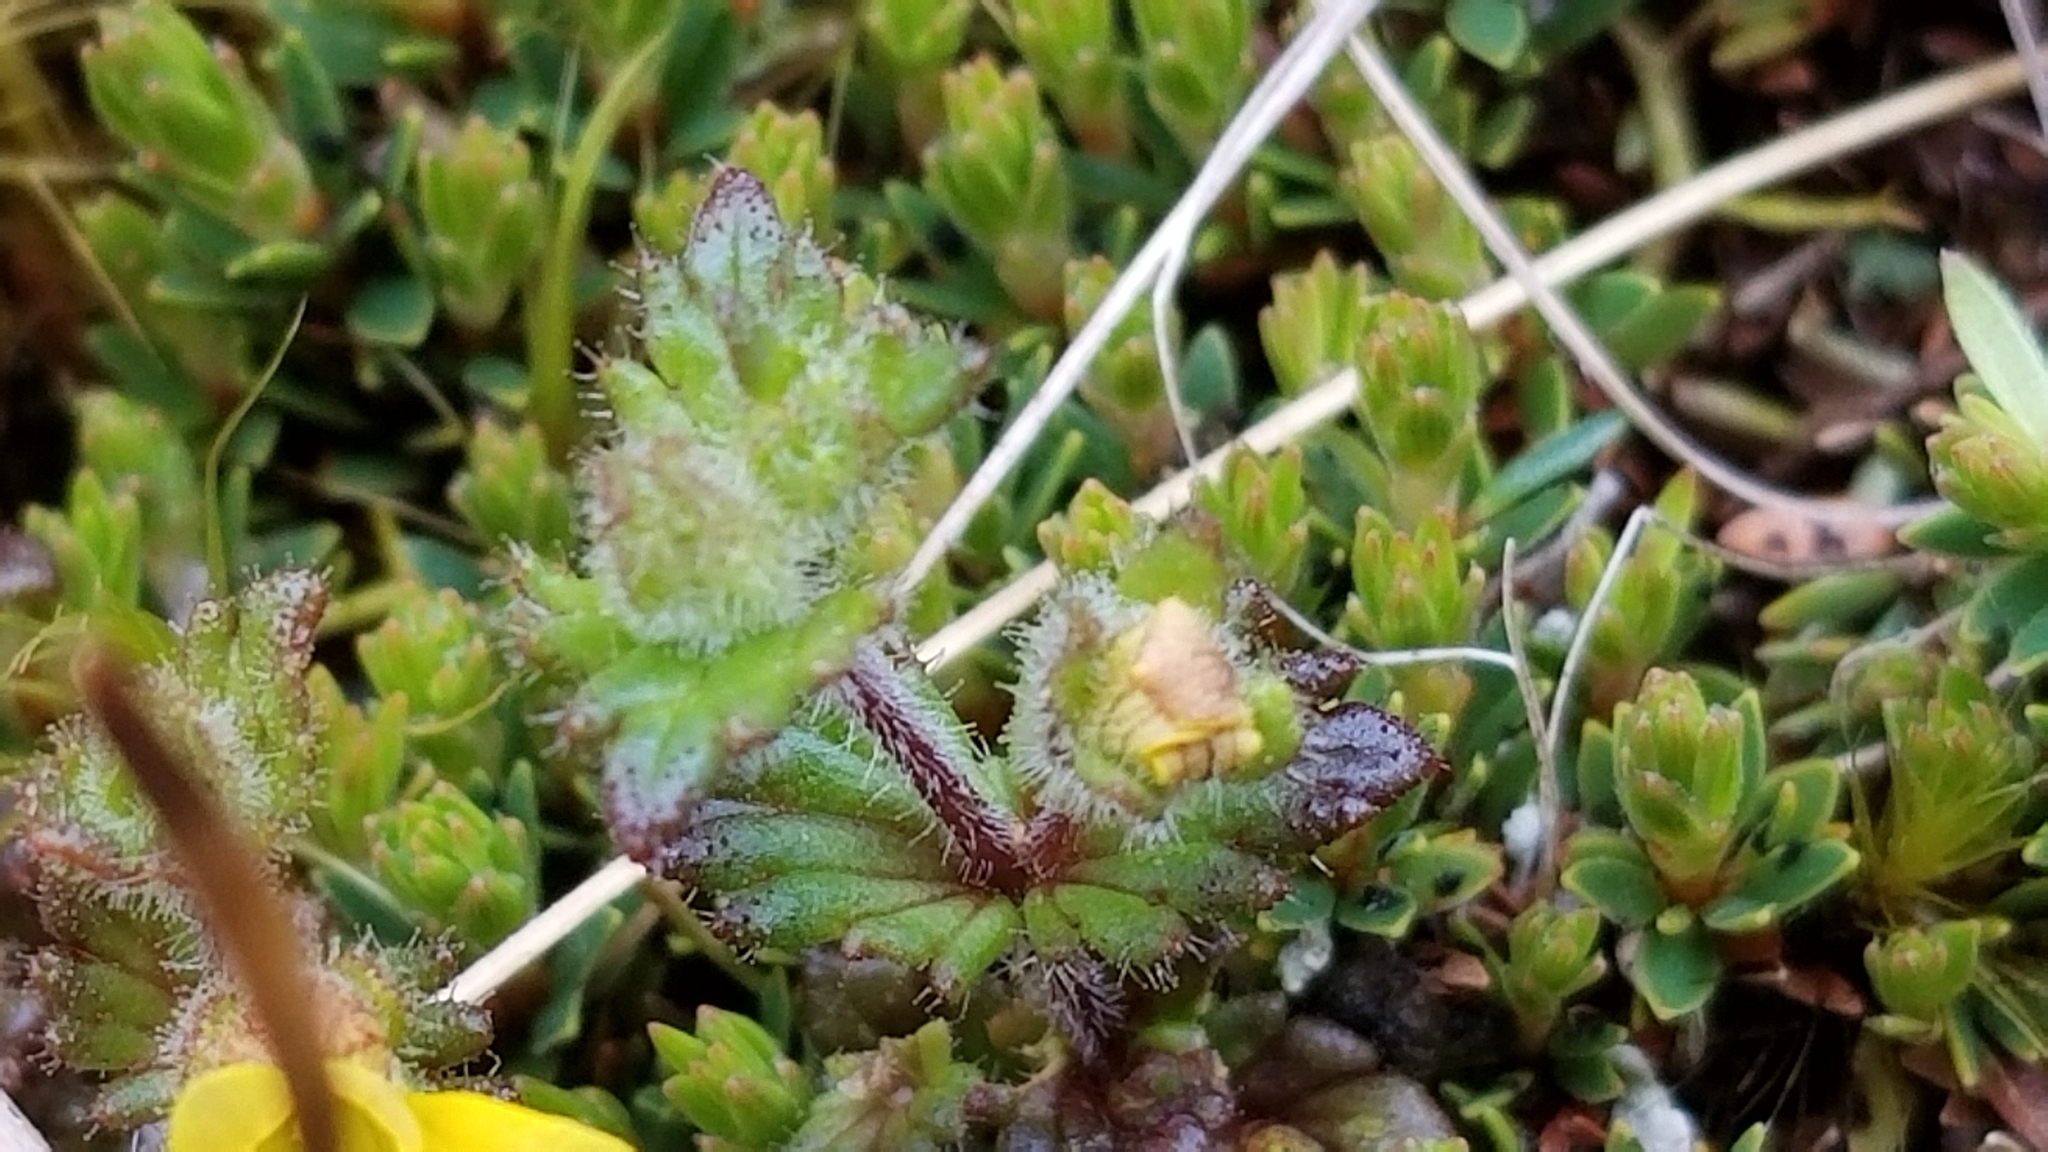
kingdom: Plantae
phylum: Tracheophyta
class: Magnoliopsida
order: Lamiales
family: Orobanchaceae
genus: Euphrasia
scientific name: Euphrasia cockayneana
